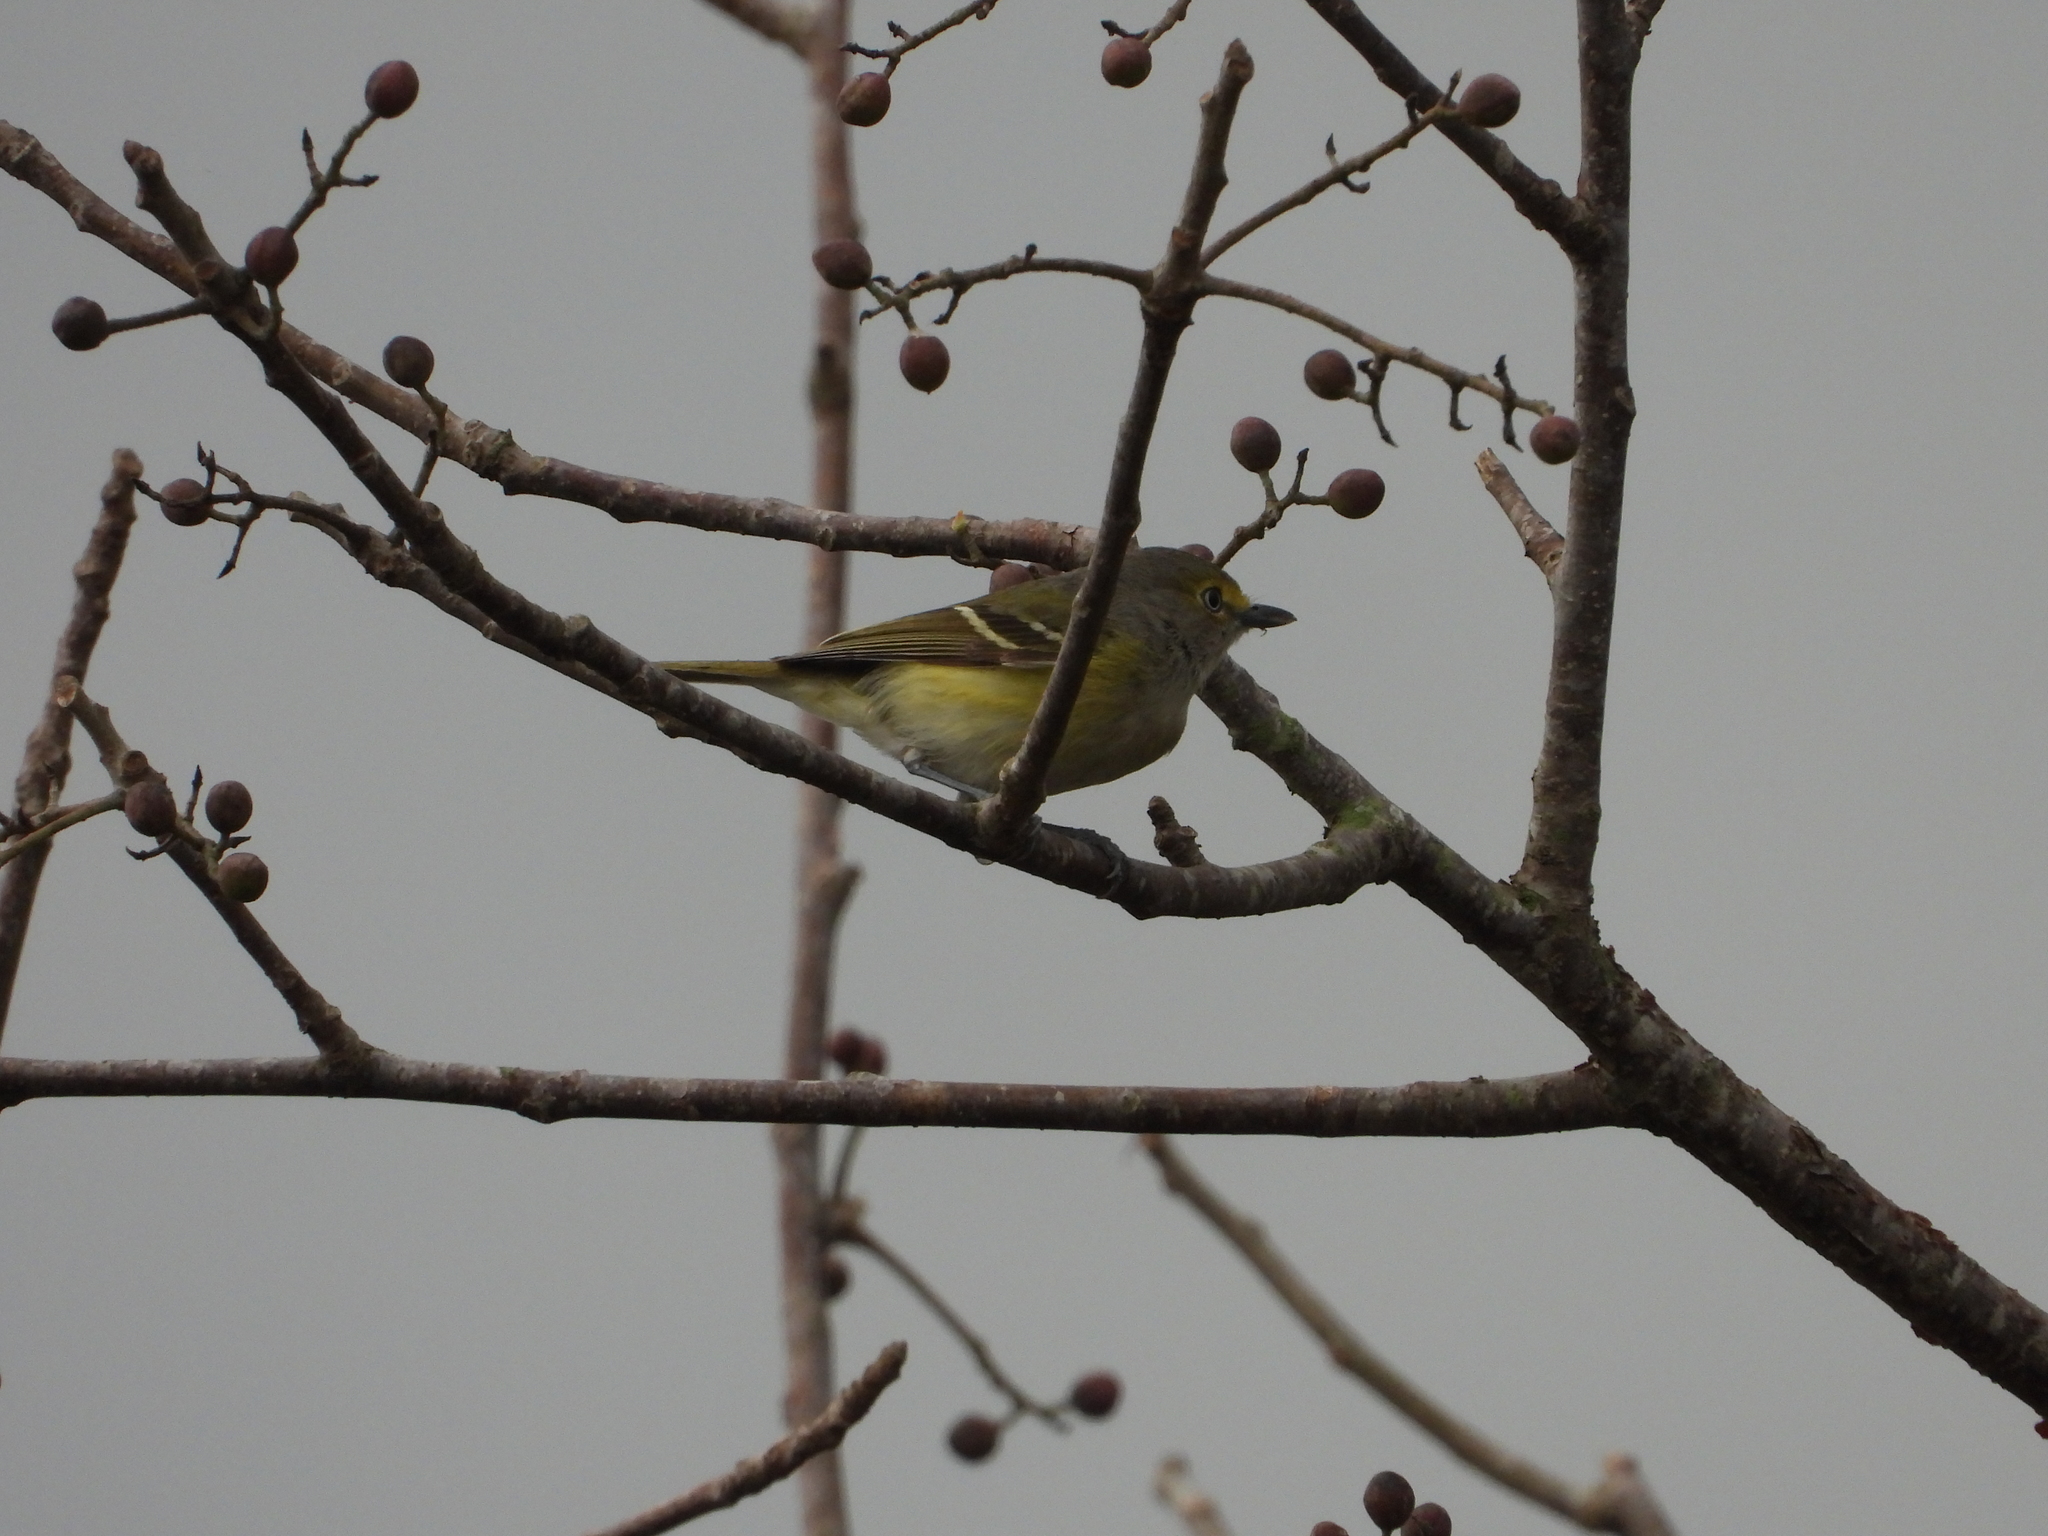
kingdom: Animalia
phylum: Chordata
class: Aves
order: Passeriformes
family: Vireonidae
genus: Vireo
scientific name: Vireo griseus
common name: White-eyed vireo
